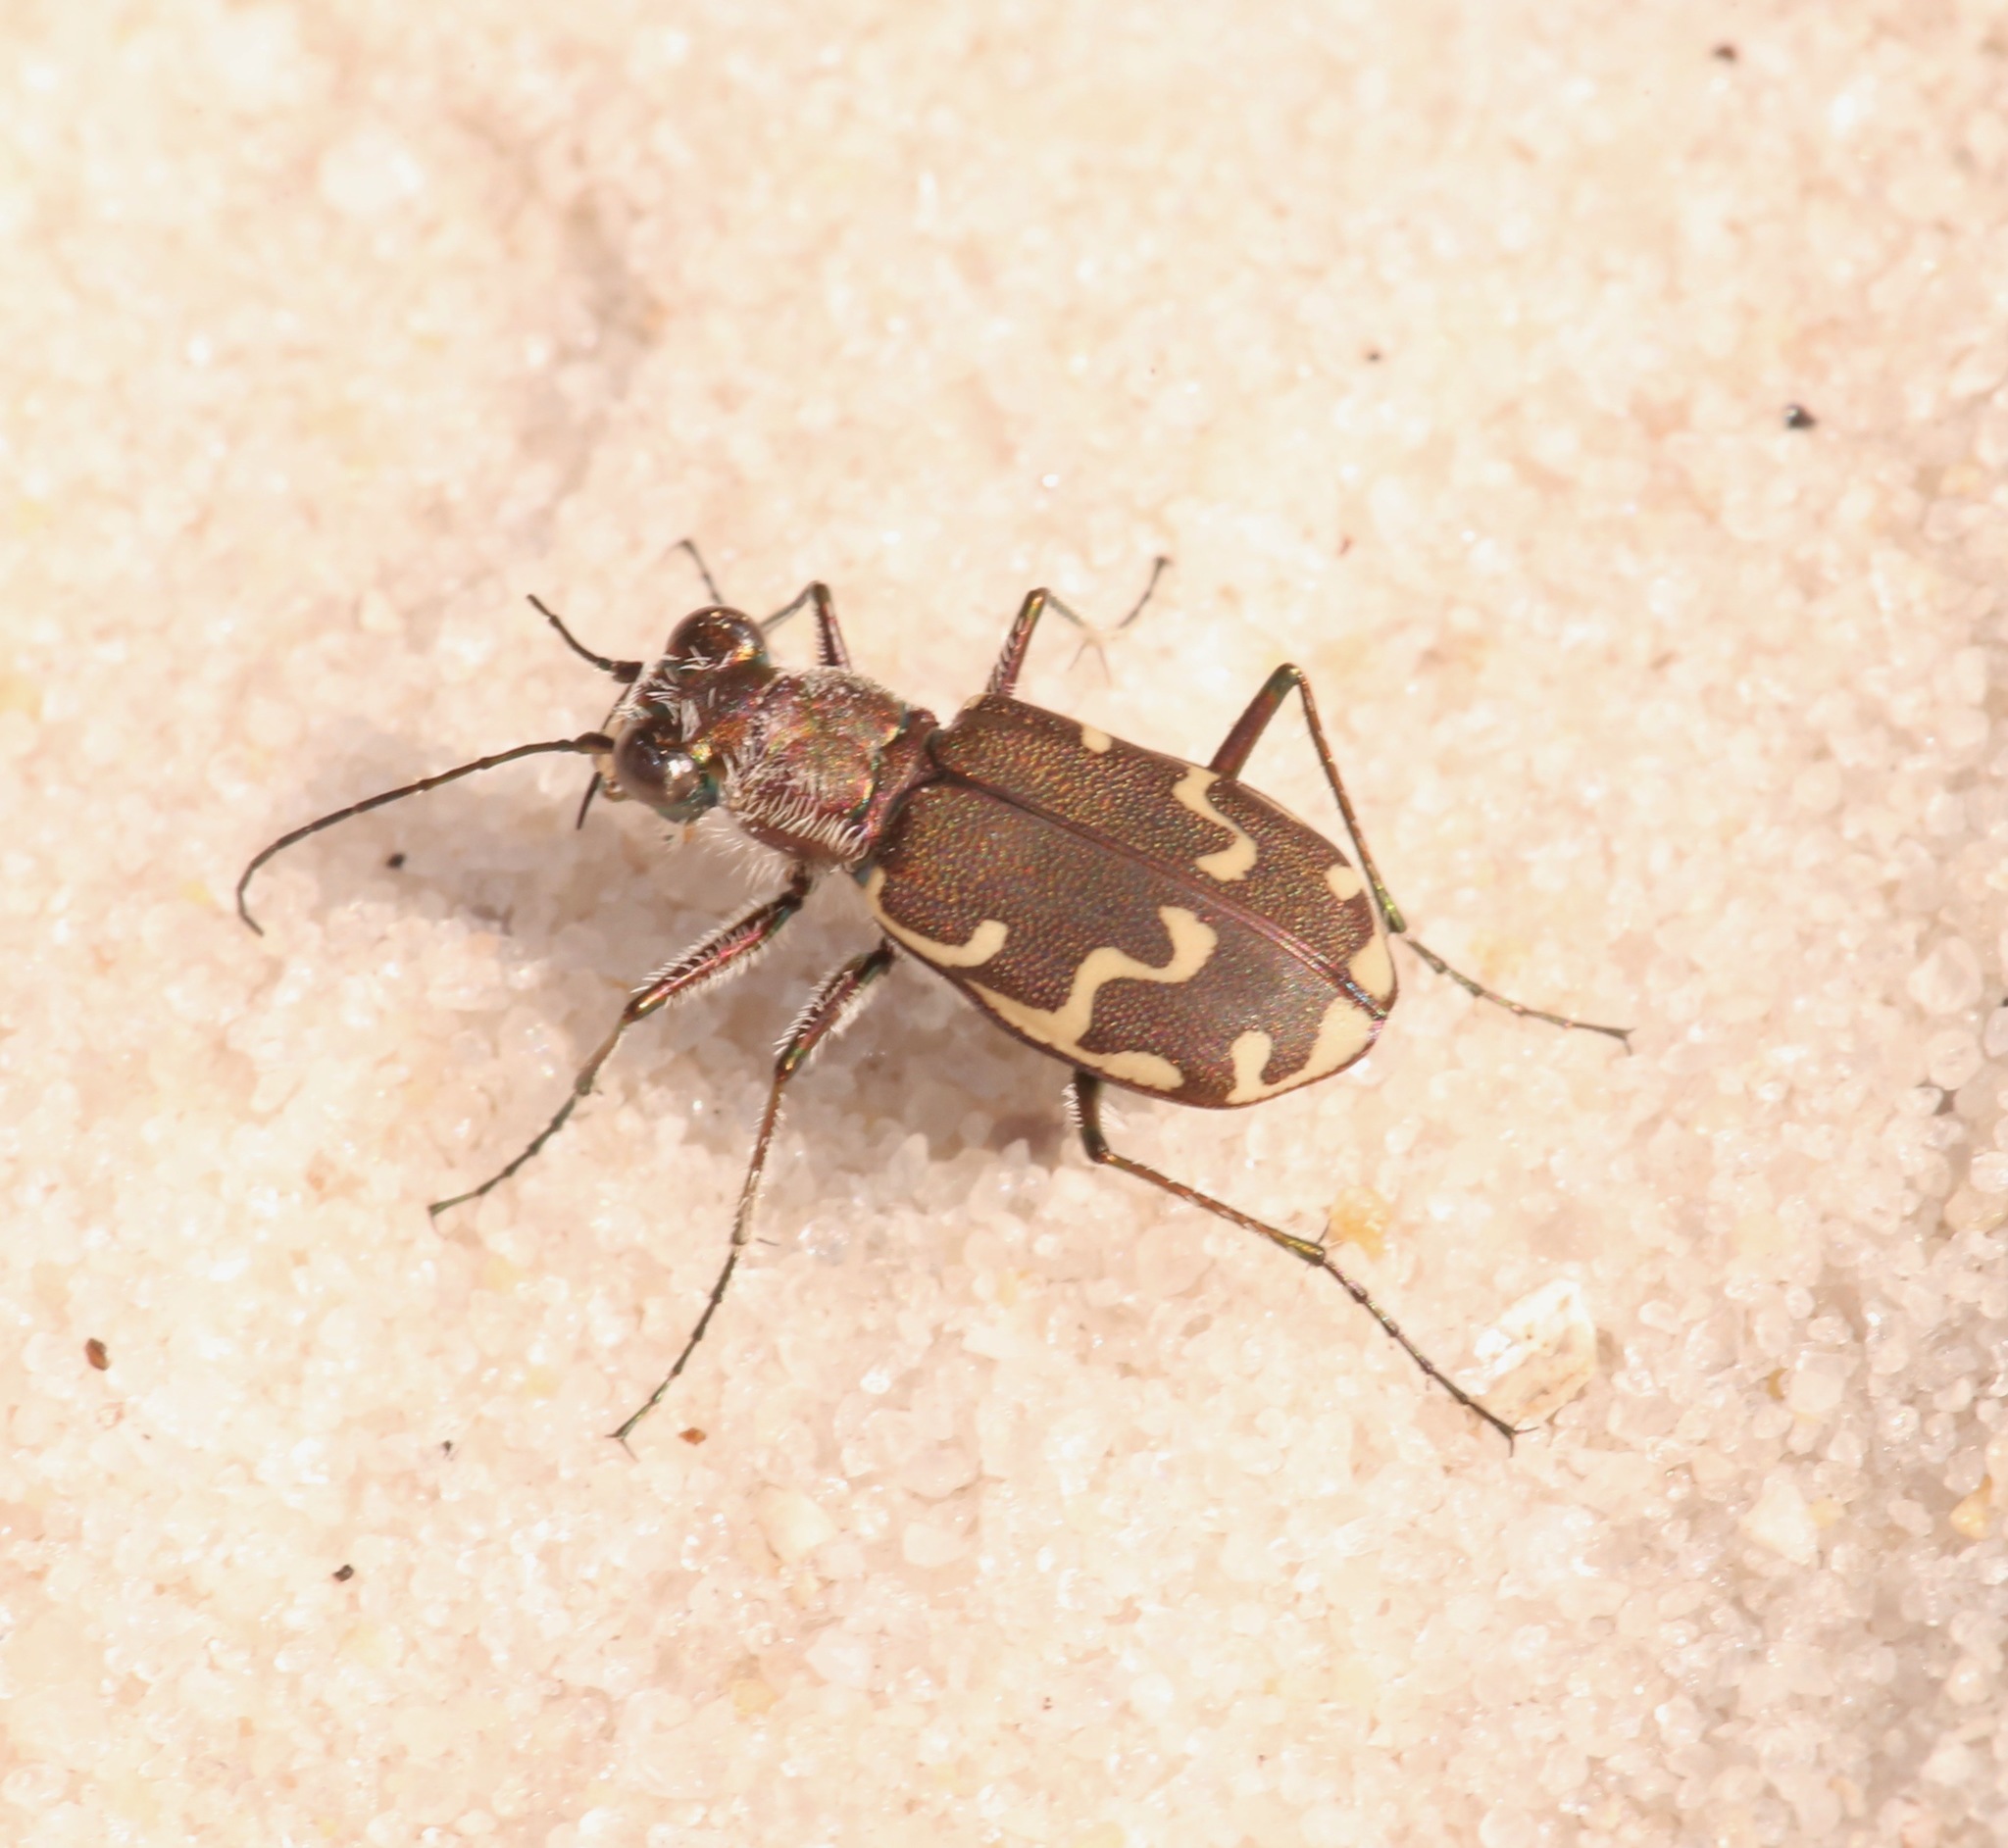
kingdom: Animalia
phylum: Arthropoda
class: Insecta
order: Coleoptera
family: Carabidae
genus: Cicindela
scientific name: Cicindela repanda
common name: Bronzed tiger beetle
